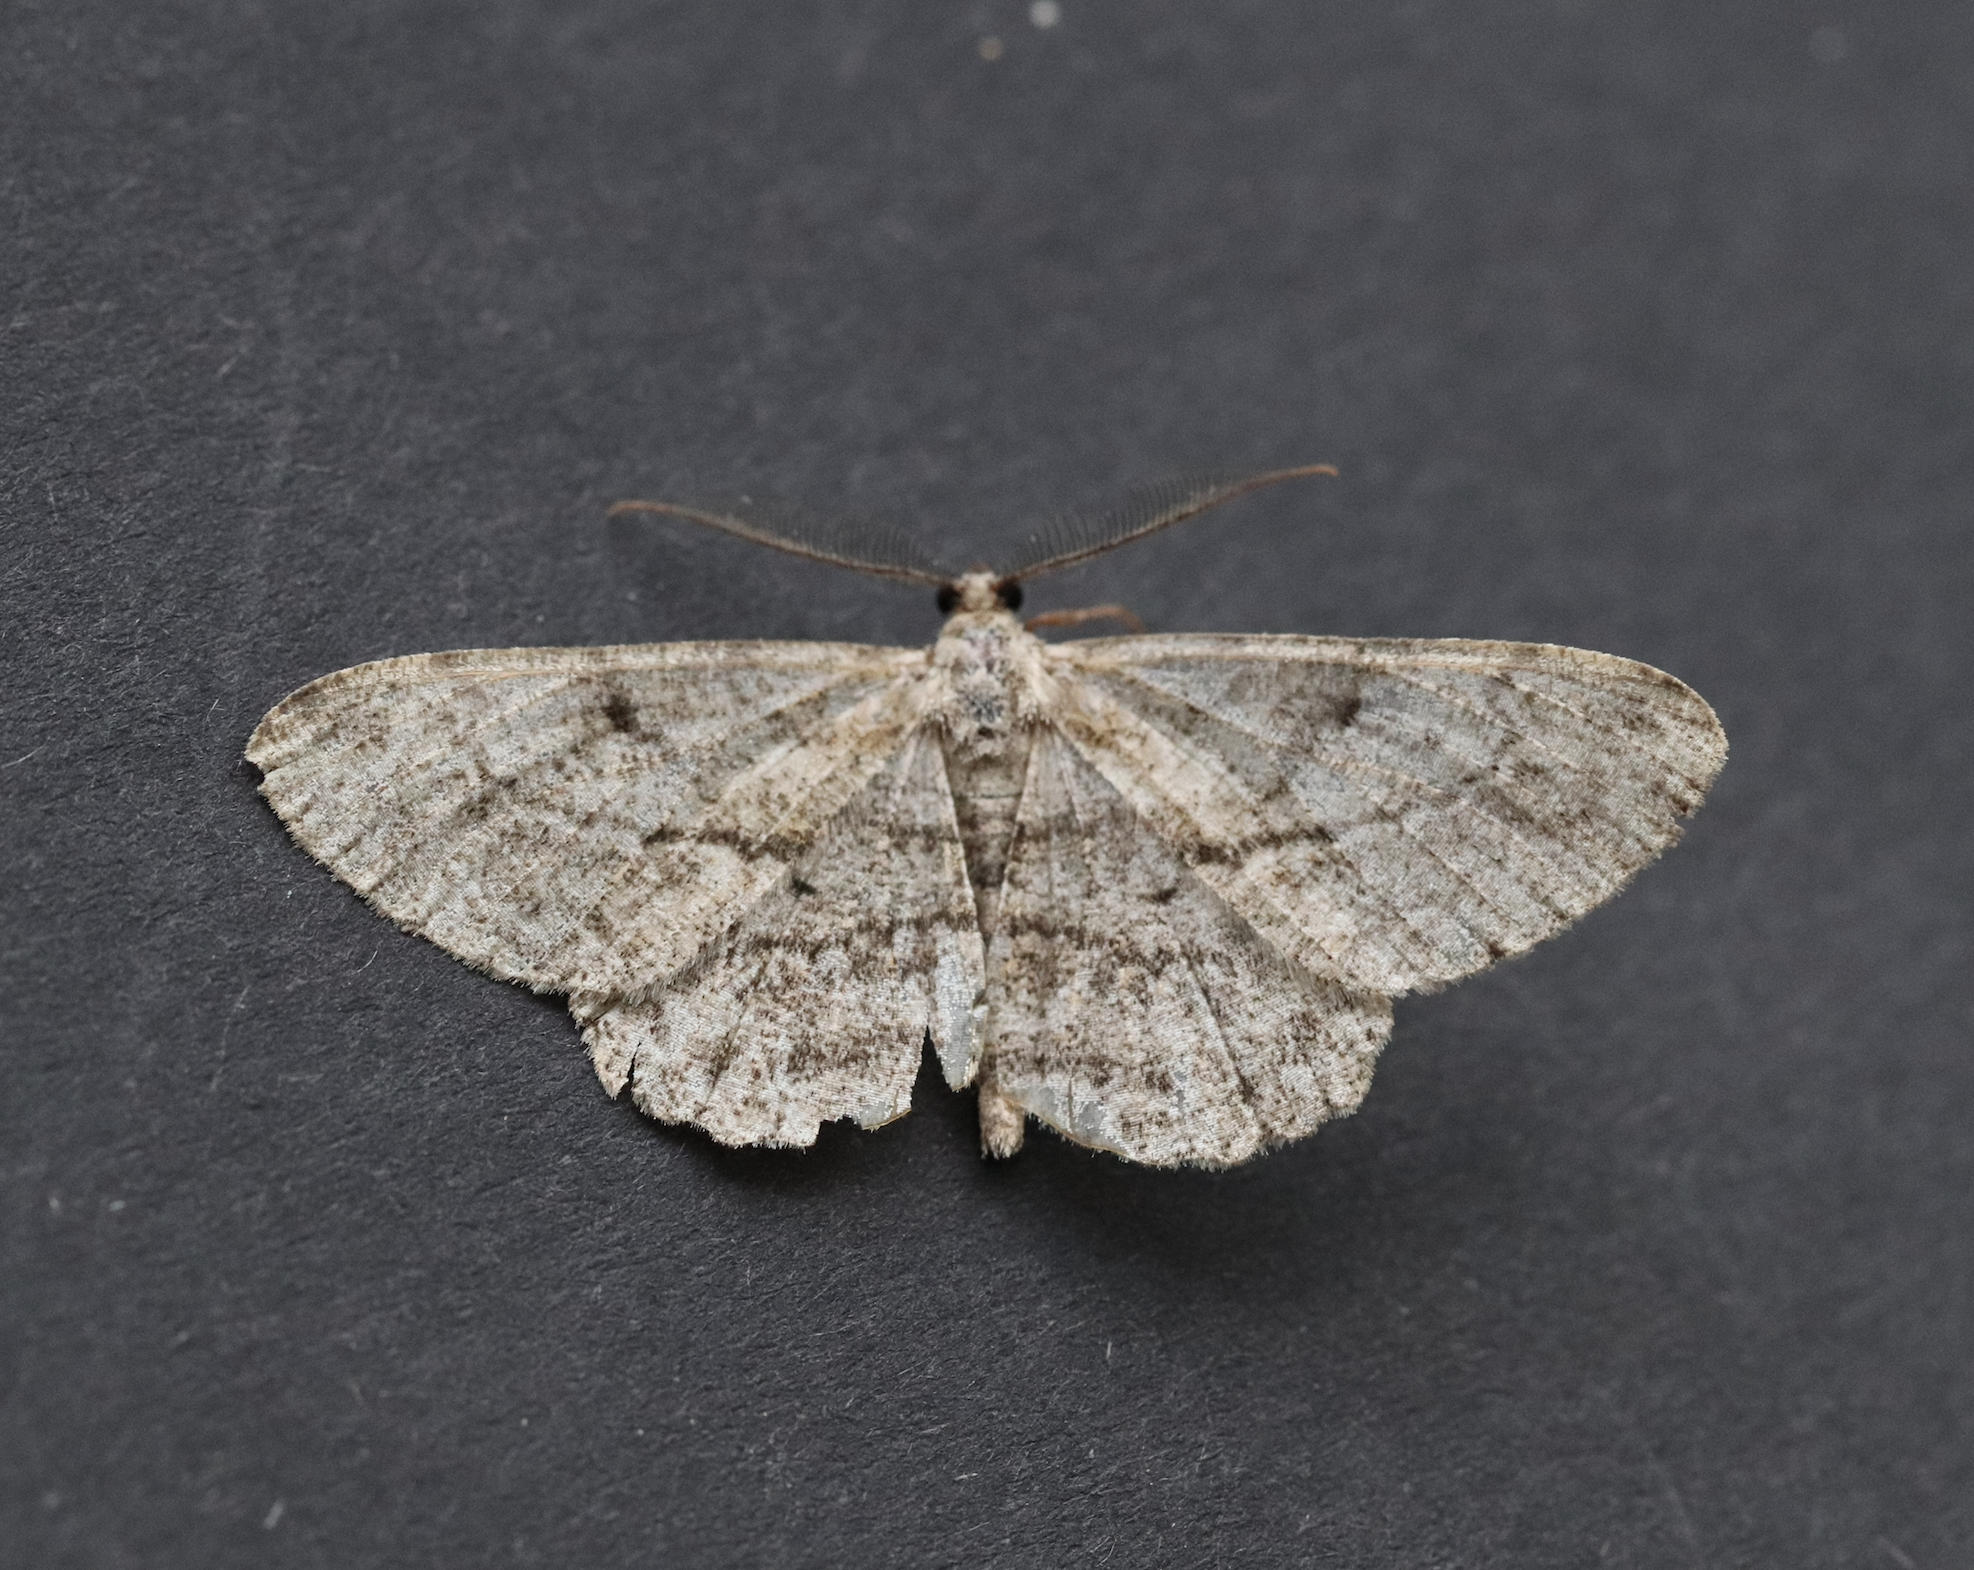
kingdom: Animalia
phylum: Arthropoda
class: Insecta
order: Lepidoptera
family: Geometridae
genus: Peribatodes
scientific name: Peribatodes rhomboidaria
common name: Willow beauty
